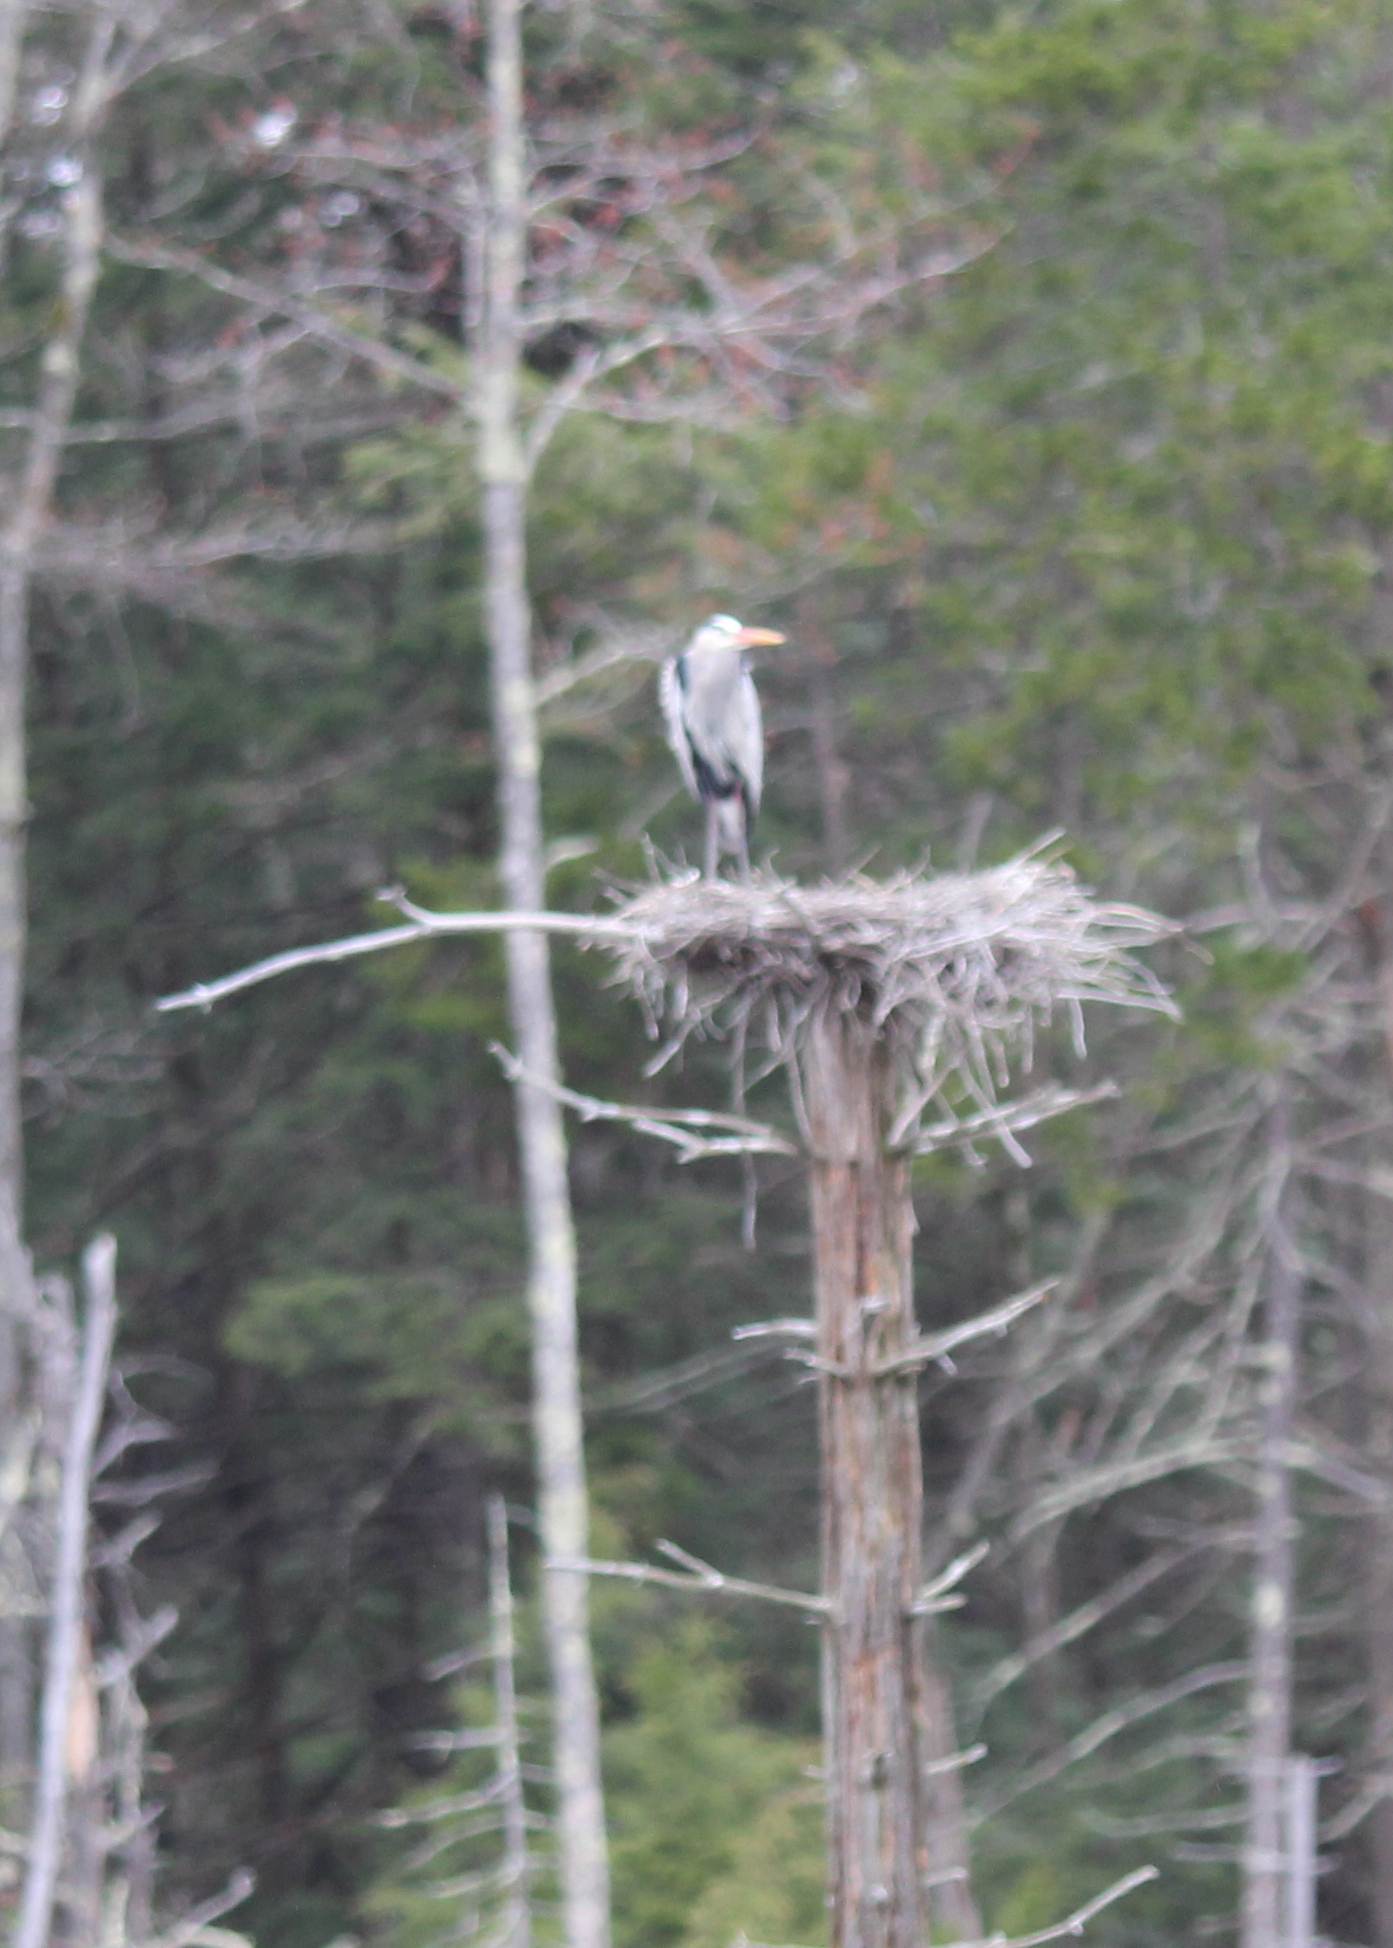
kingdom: Animalia
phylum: Chordata
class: Aves
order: Pelecaniformes
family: Ardeidae
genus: Ardea
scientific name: Ardea herodias
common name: Great blue heron
